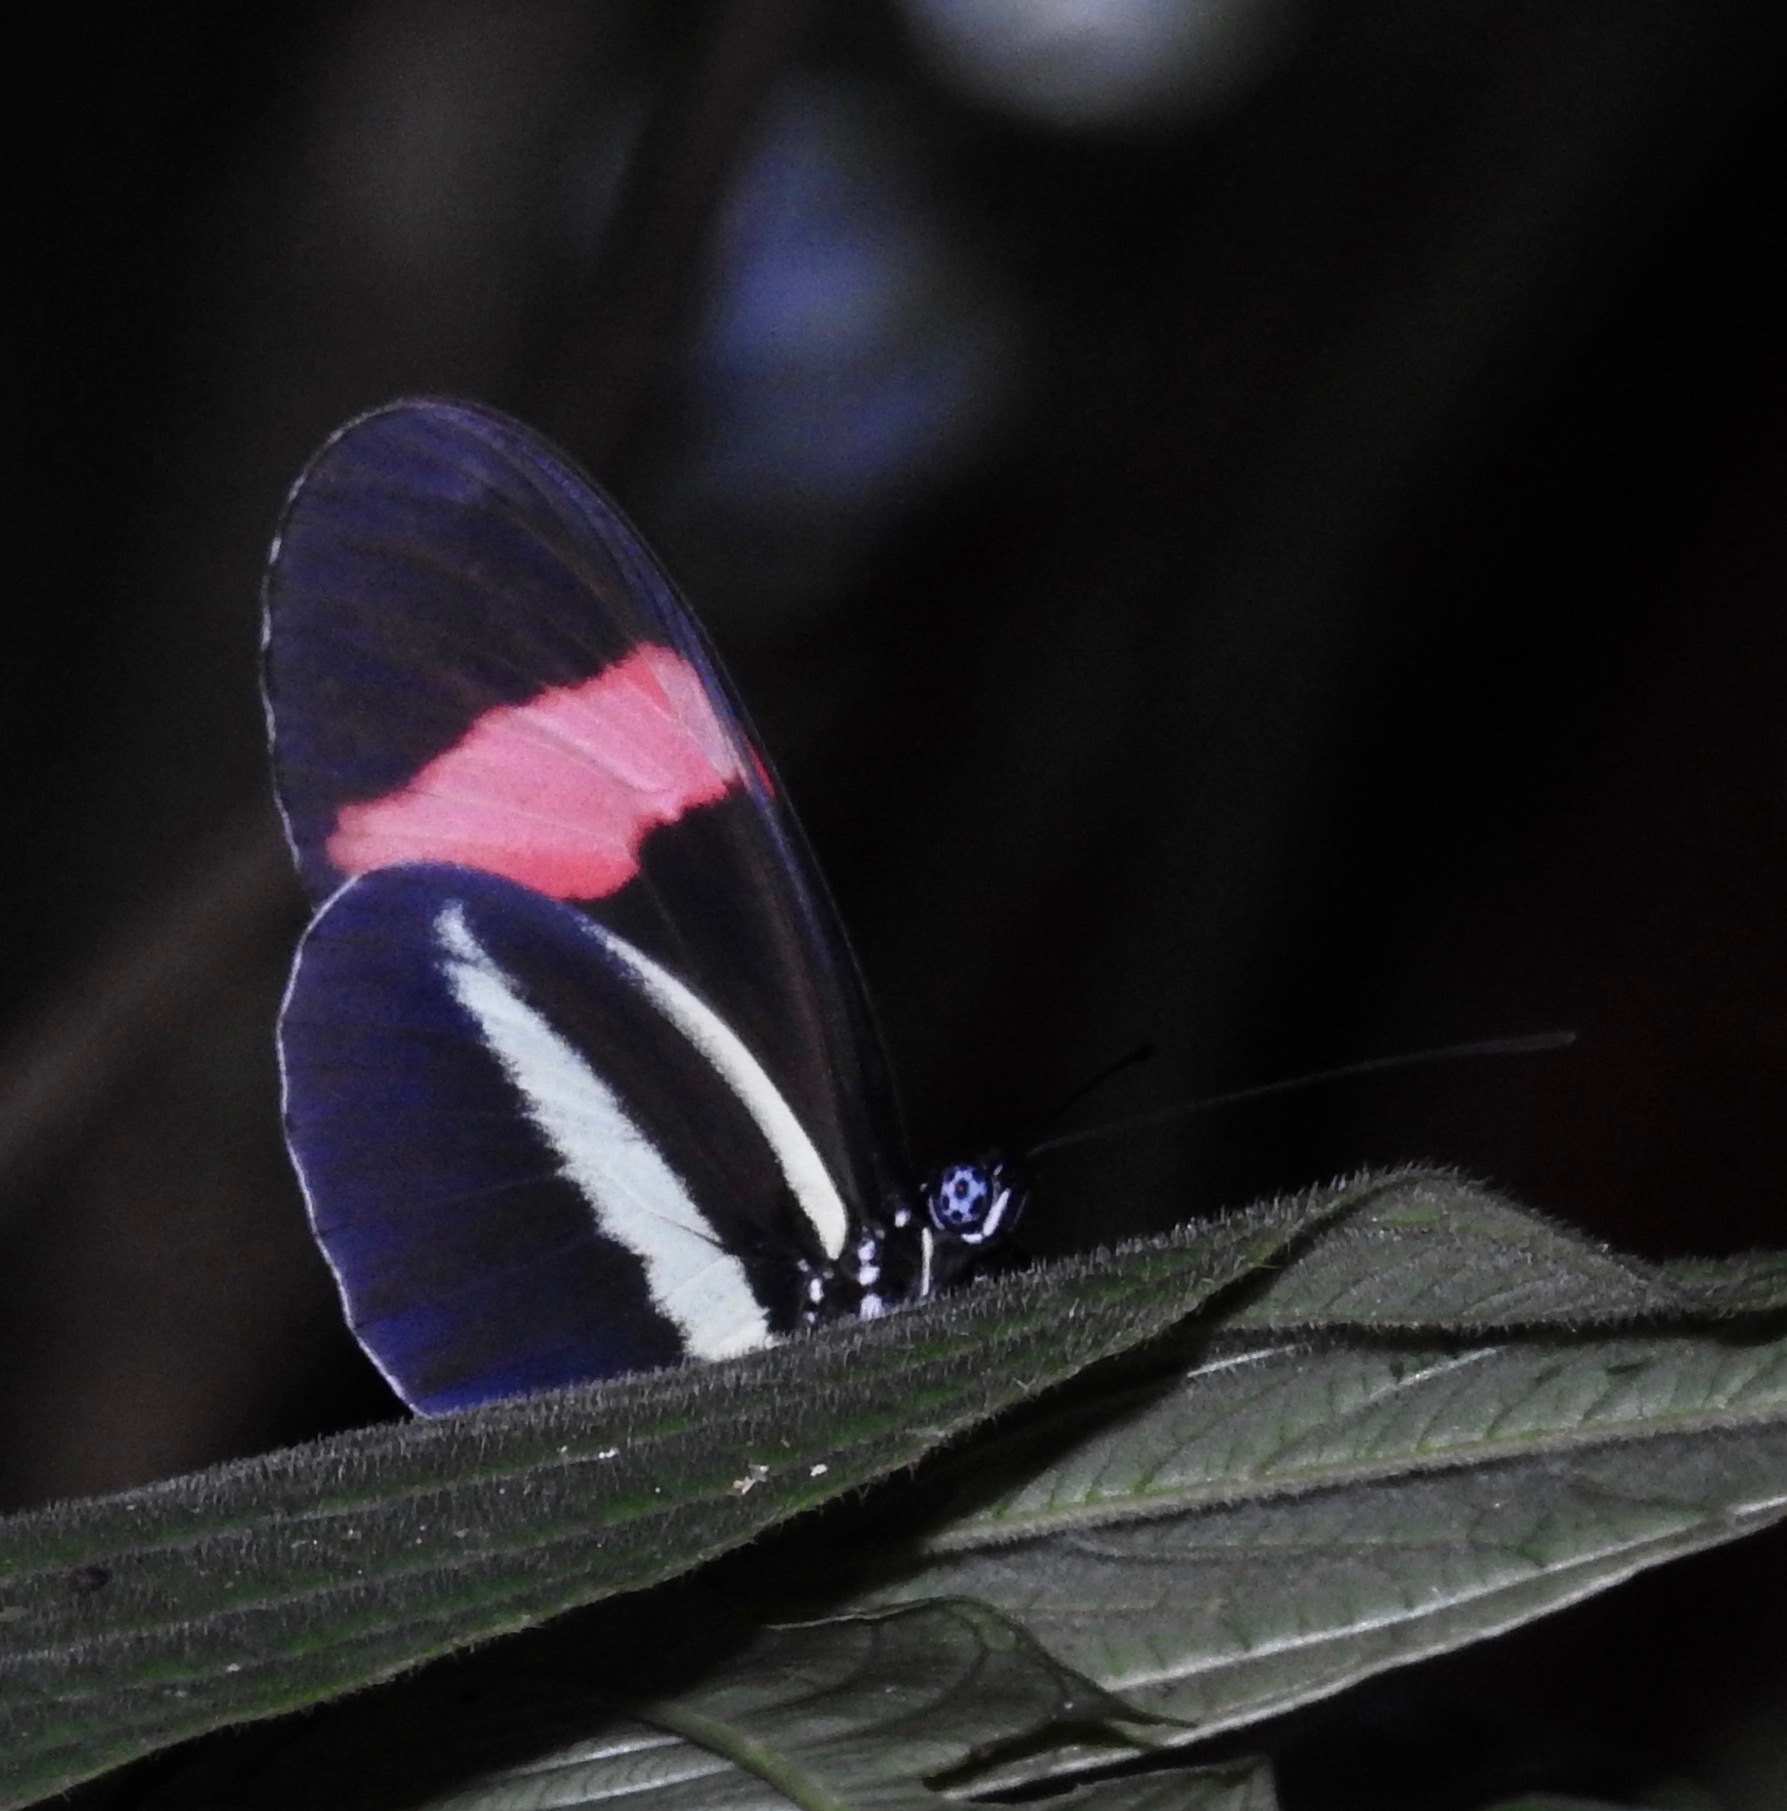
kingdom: Animalia
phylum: Arthropoda
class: Insecta
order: Lepidoptera
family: Nymphalidae
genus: Heliconius
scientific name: Heliconius erato
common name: Common patch longwing
